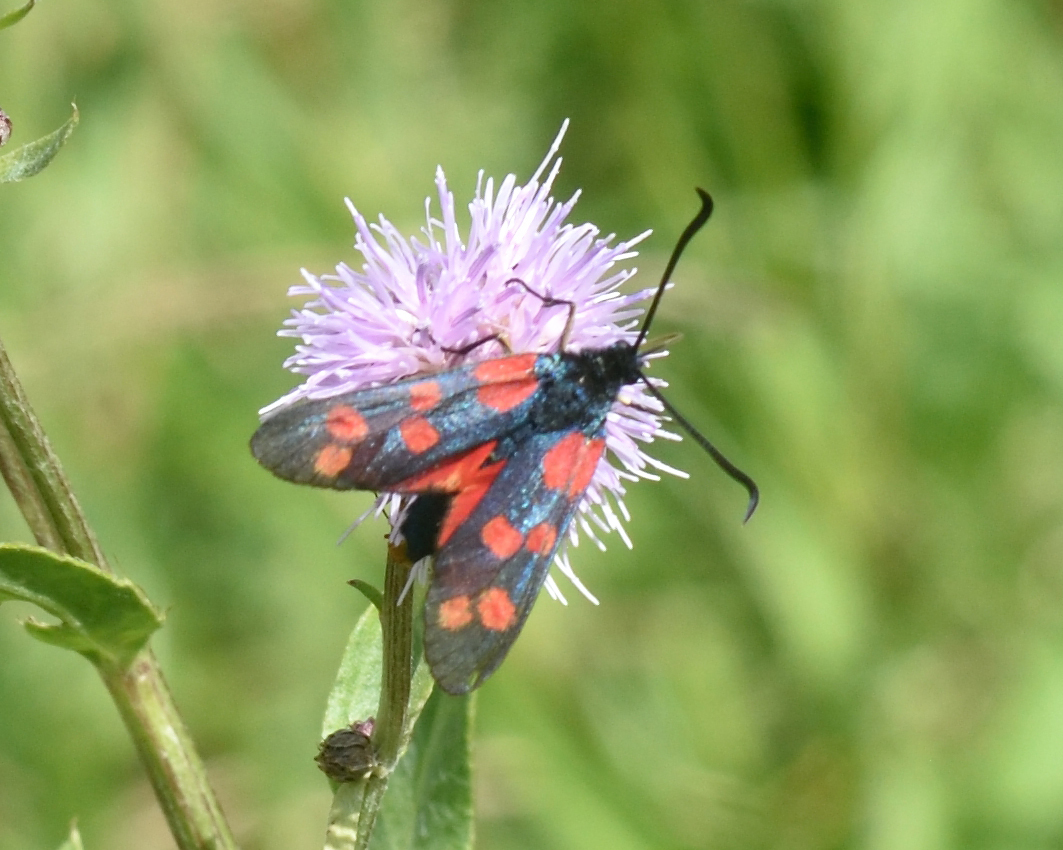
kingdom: Animalia
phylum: Arthropoda
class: Insecta
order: Lepidoptera
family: Zygaenidae
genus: Zygaena
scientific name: Zygaena filipendulae
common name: Six-spot burnet
